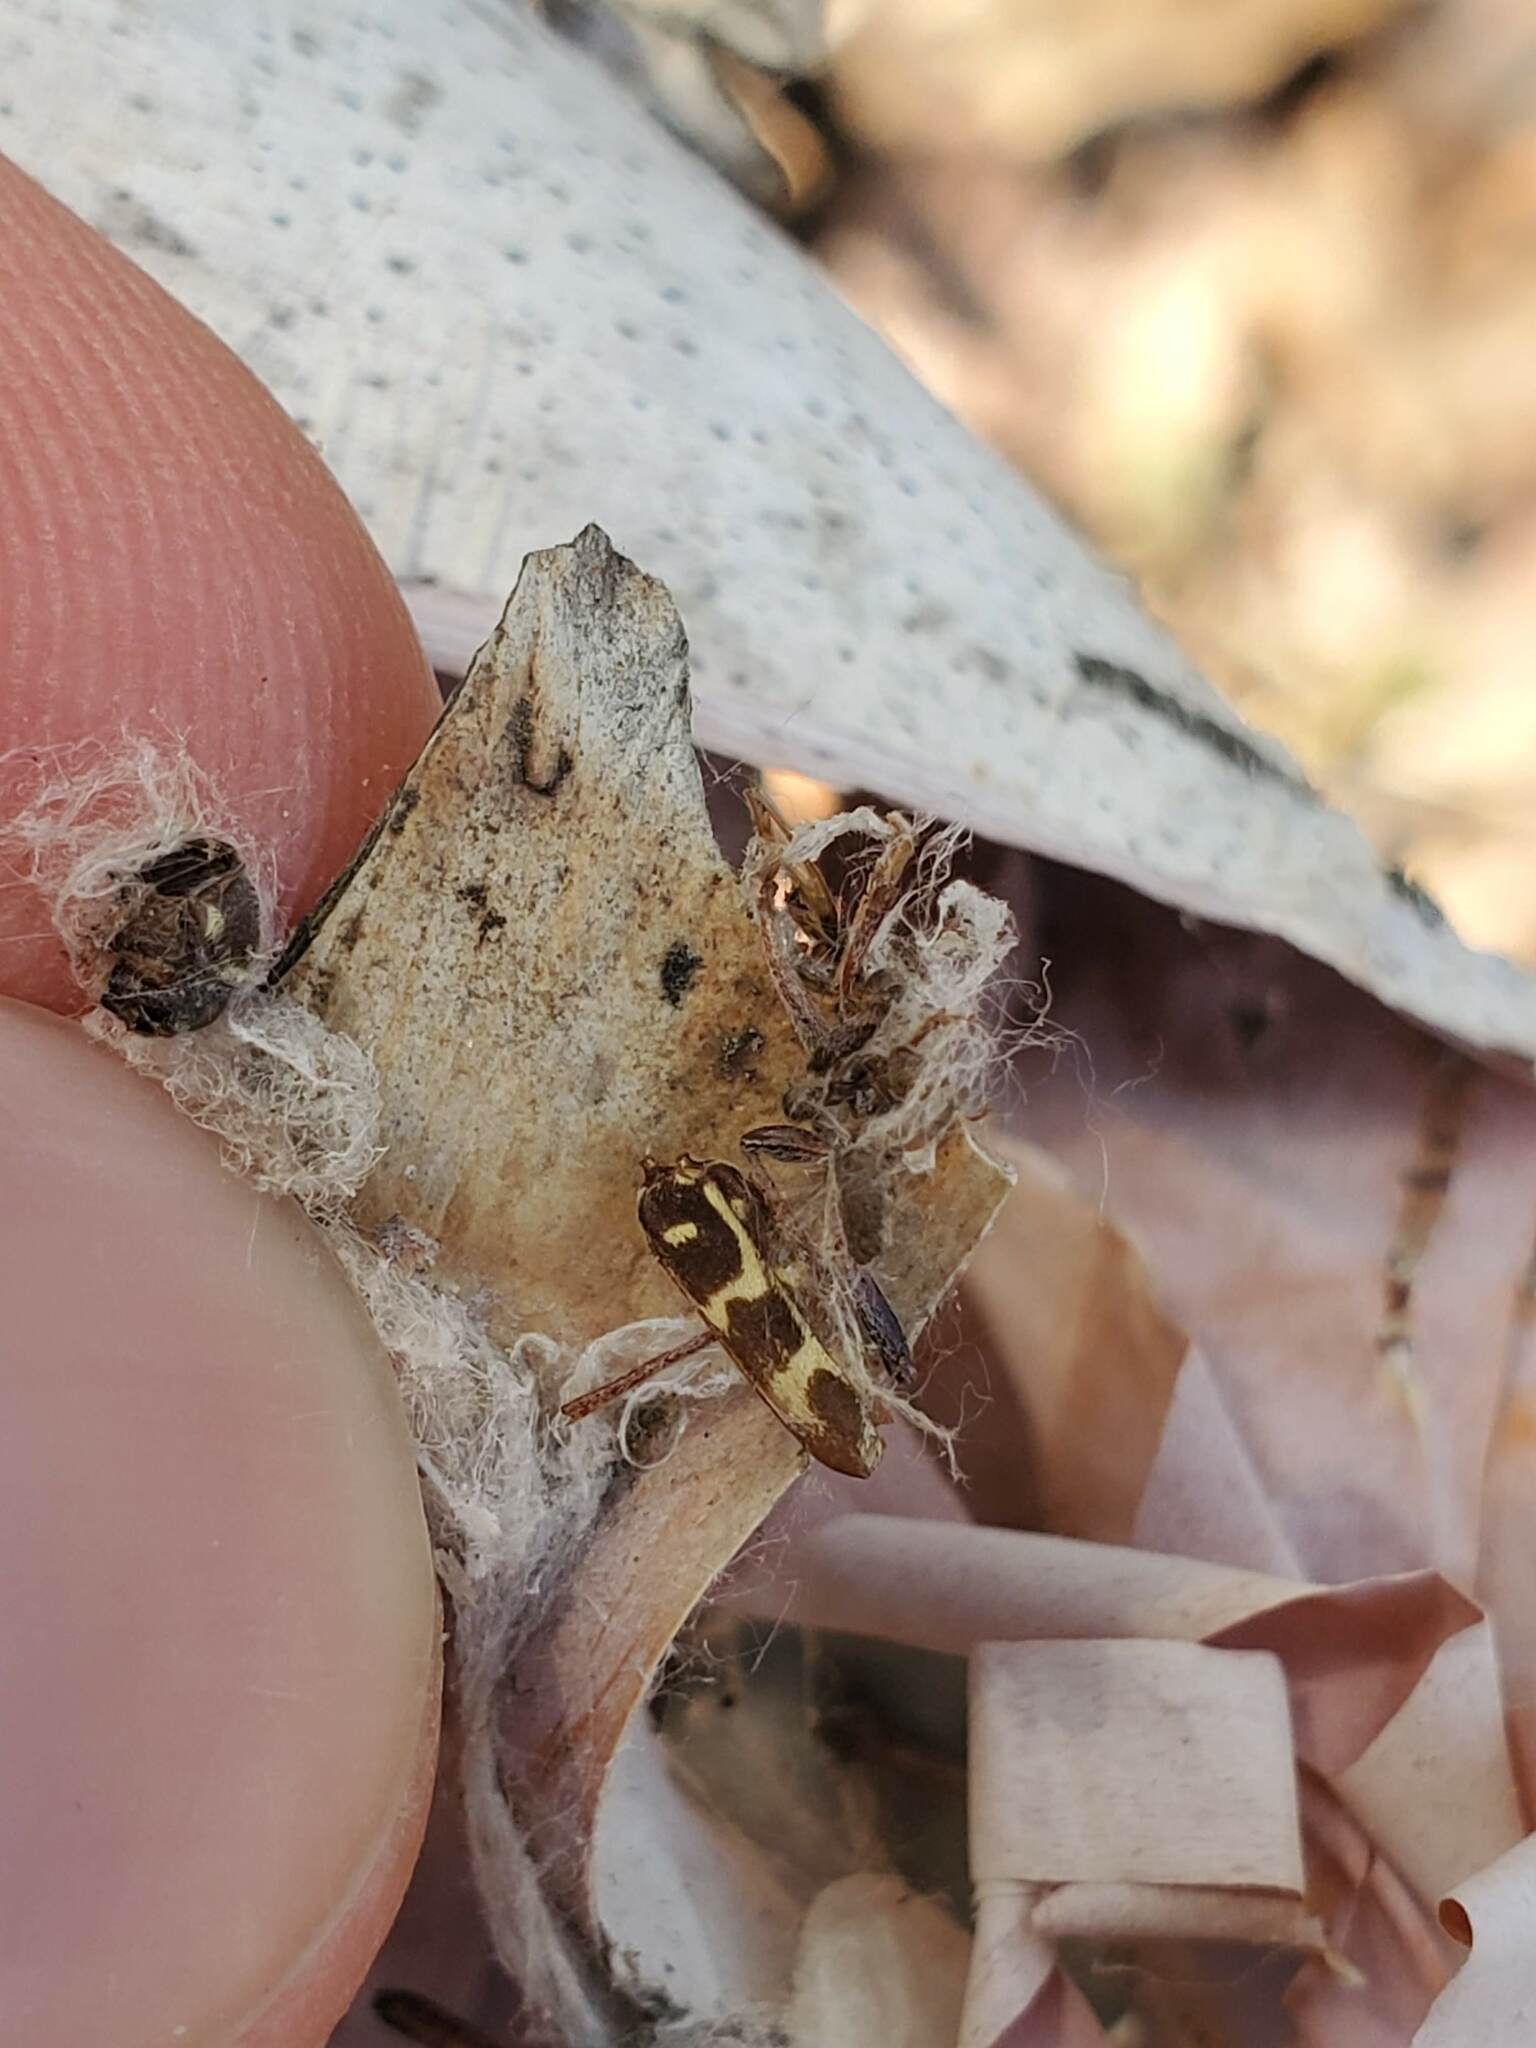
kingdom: Animalia
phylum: Arthropoda
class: Insecta
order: Coleoptera
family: Cerambycidae
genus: Xylotrechus
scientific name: Xylotrechus undulatus
